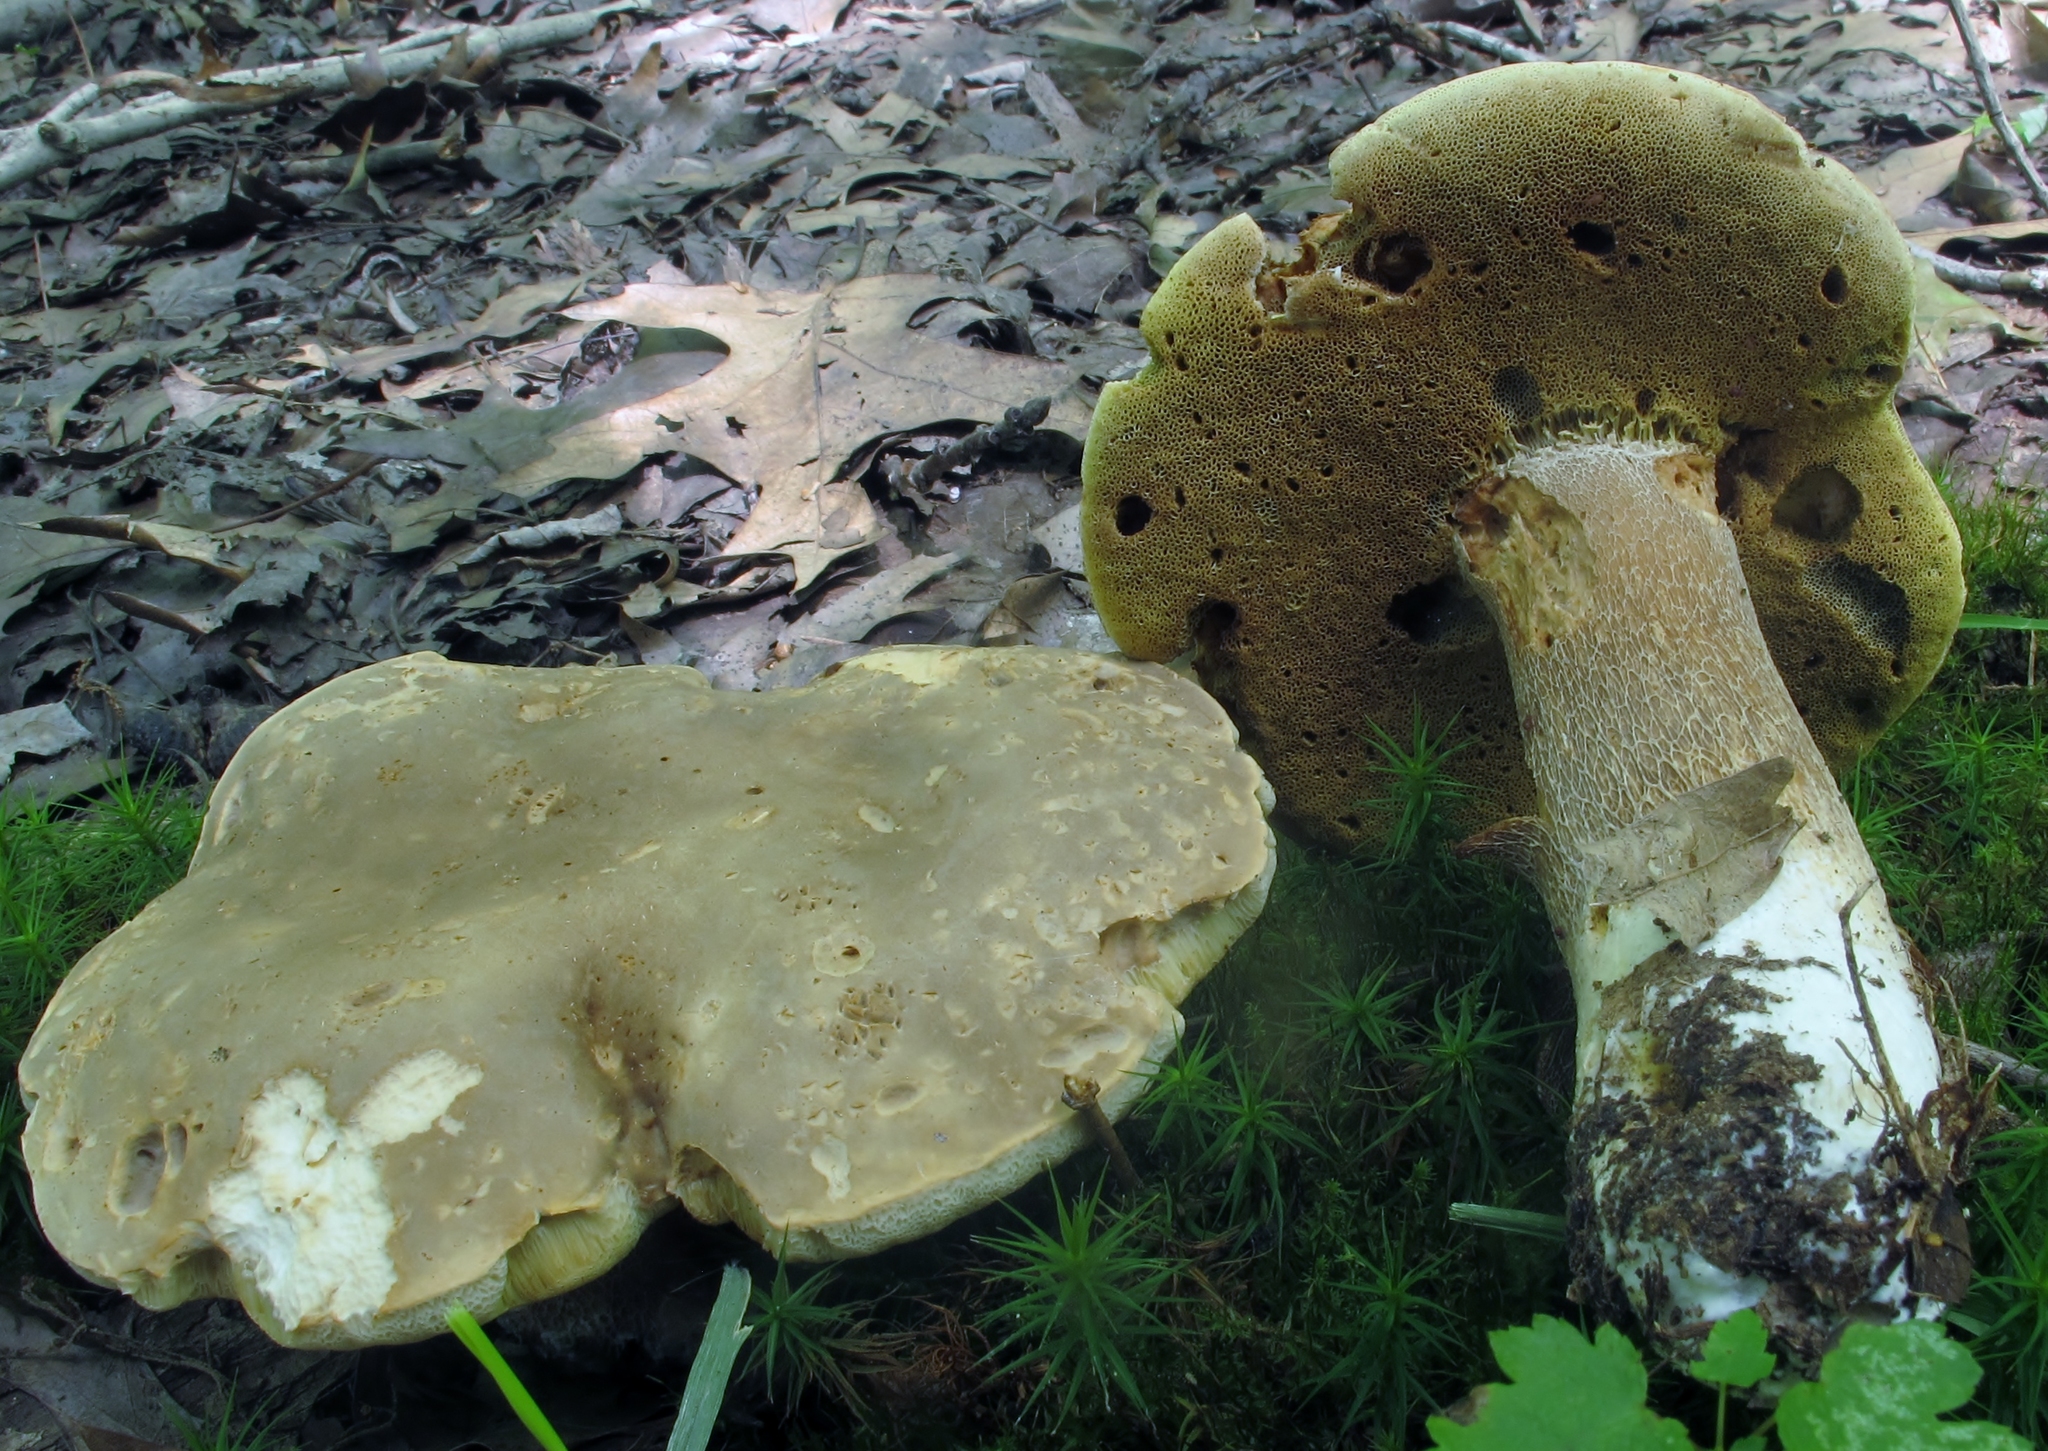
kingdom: Fungi
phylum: Basidiomycota
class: Agaricomycetes
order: Boletales
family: Boletaceae
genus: Boletus
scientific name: Boletus variipes
